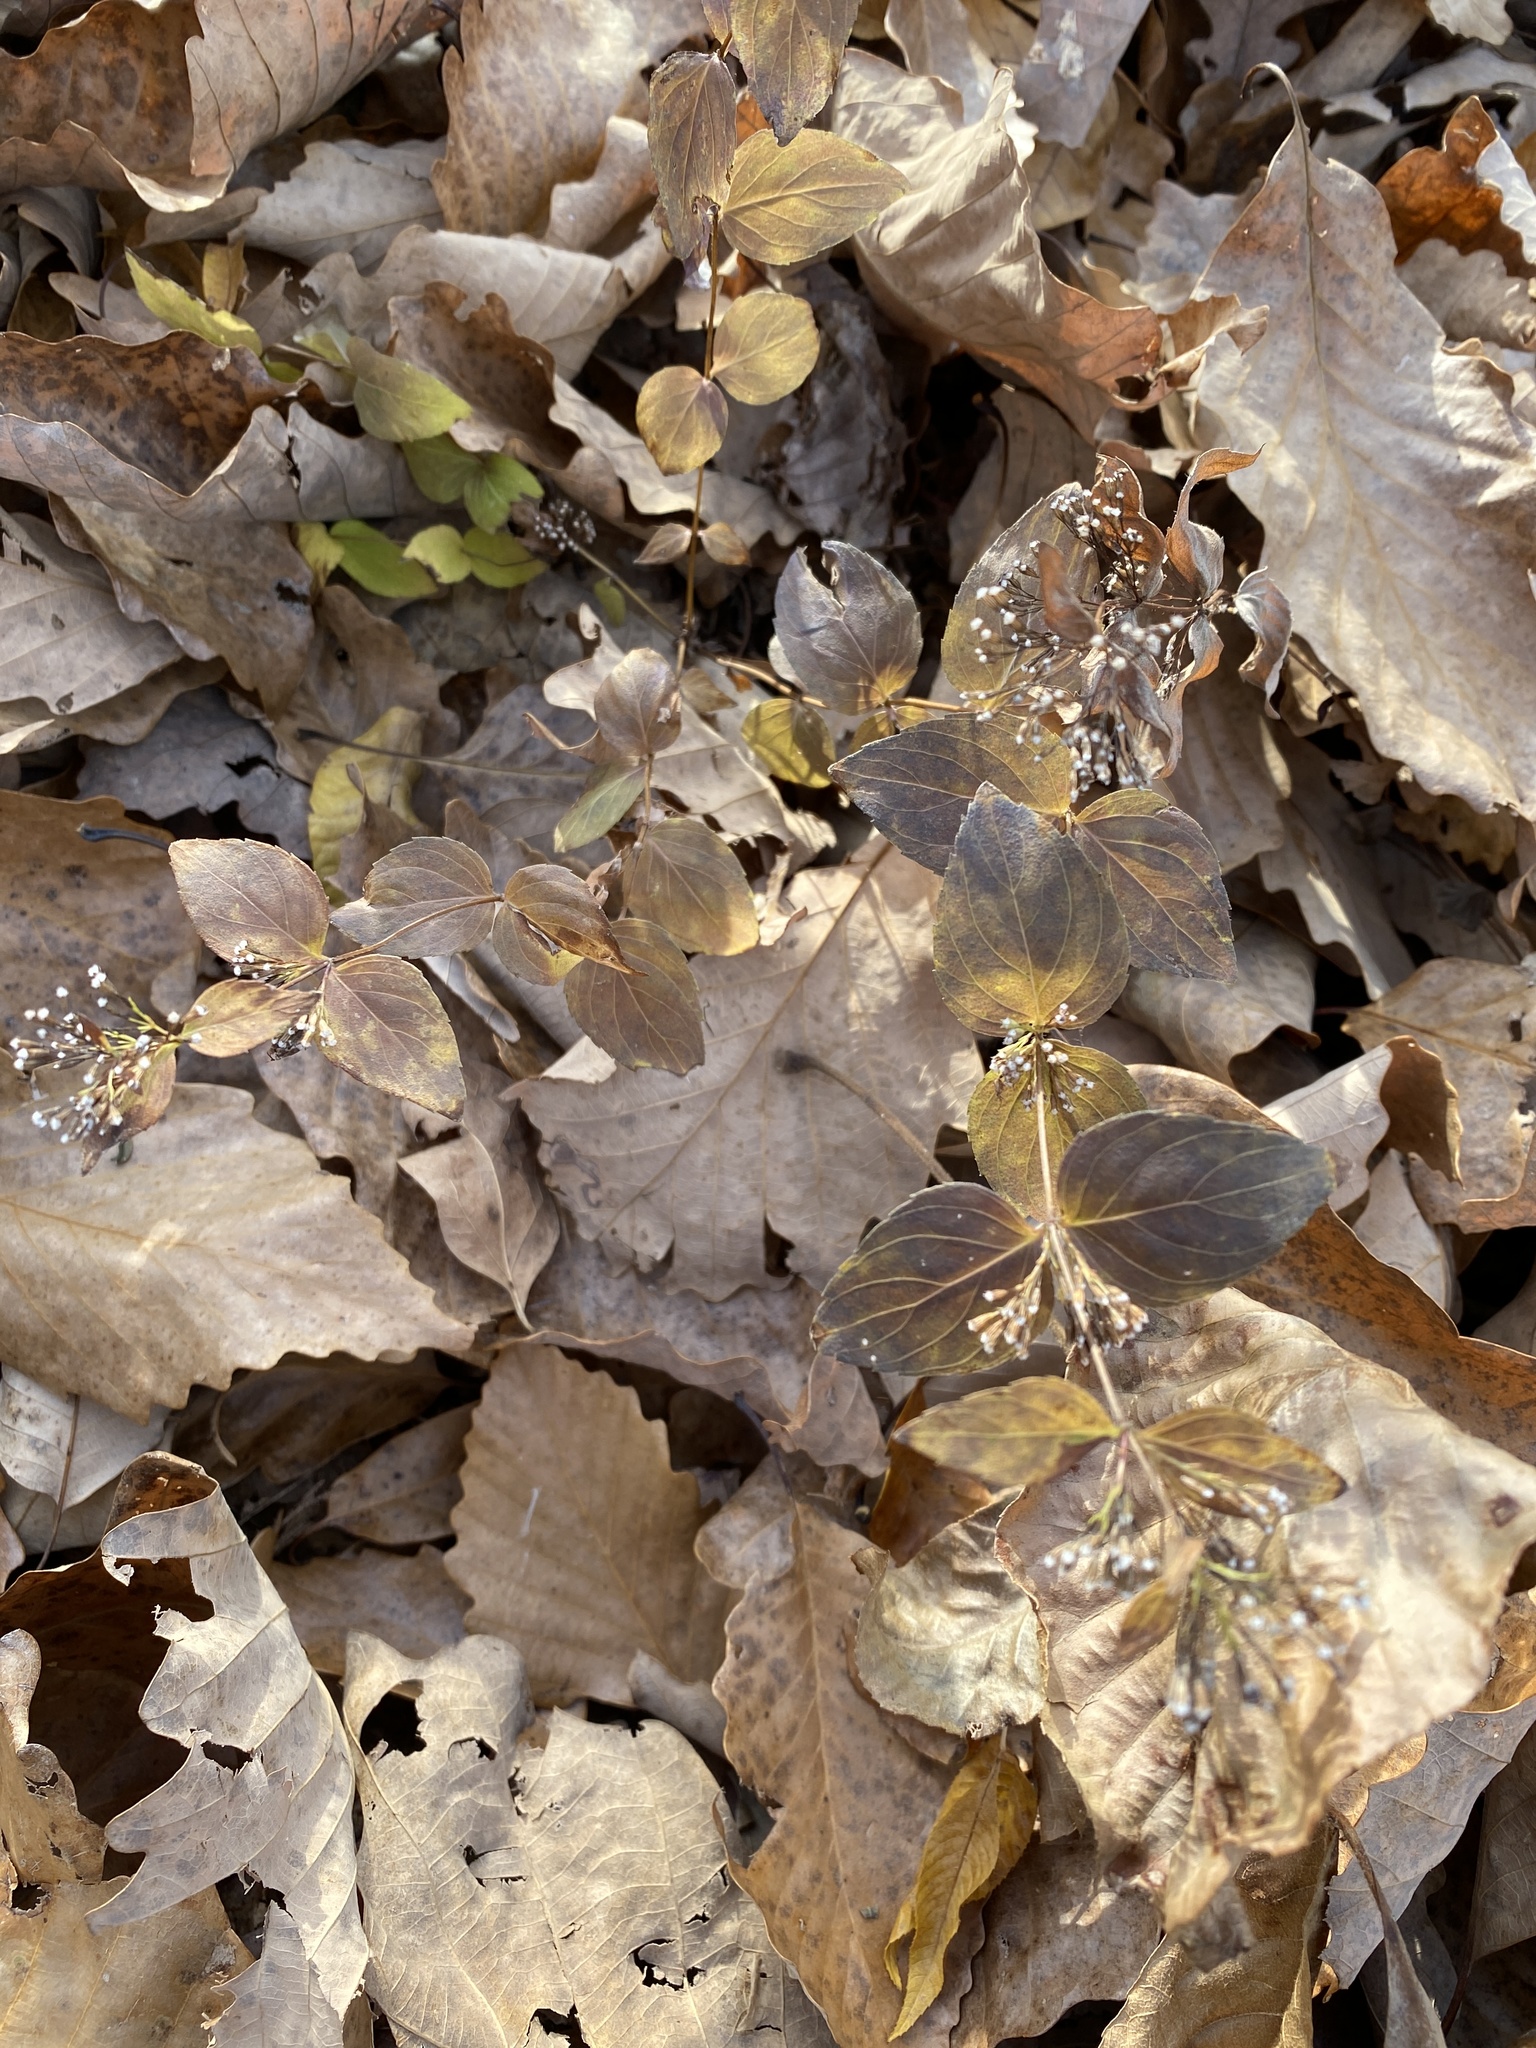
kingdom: Plantae
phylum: Tracheophyta
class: Magnoliopsida
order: Lamiales
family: Lamiaceae
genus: Cunila
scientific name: Cunila origanoides
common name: American dittany
